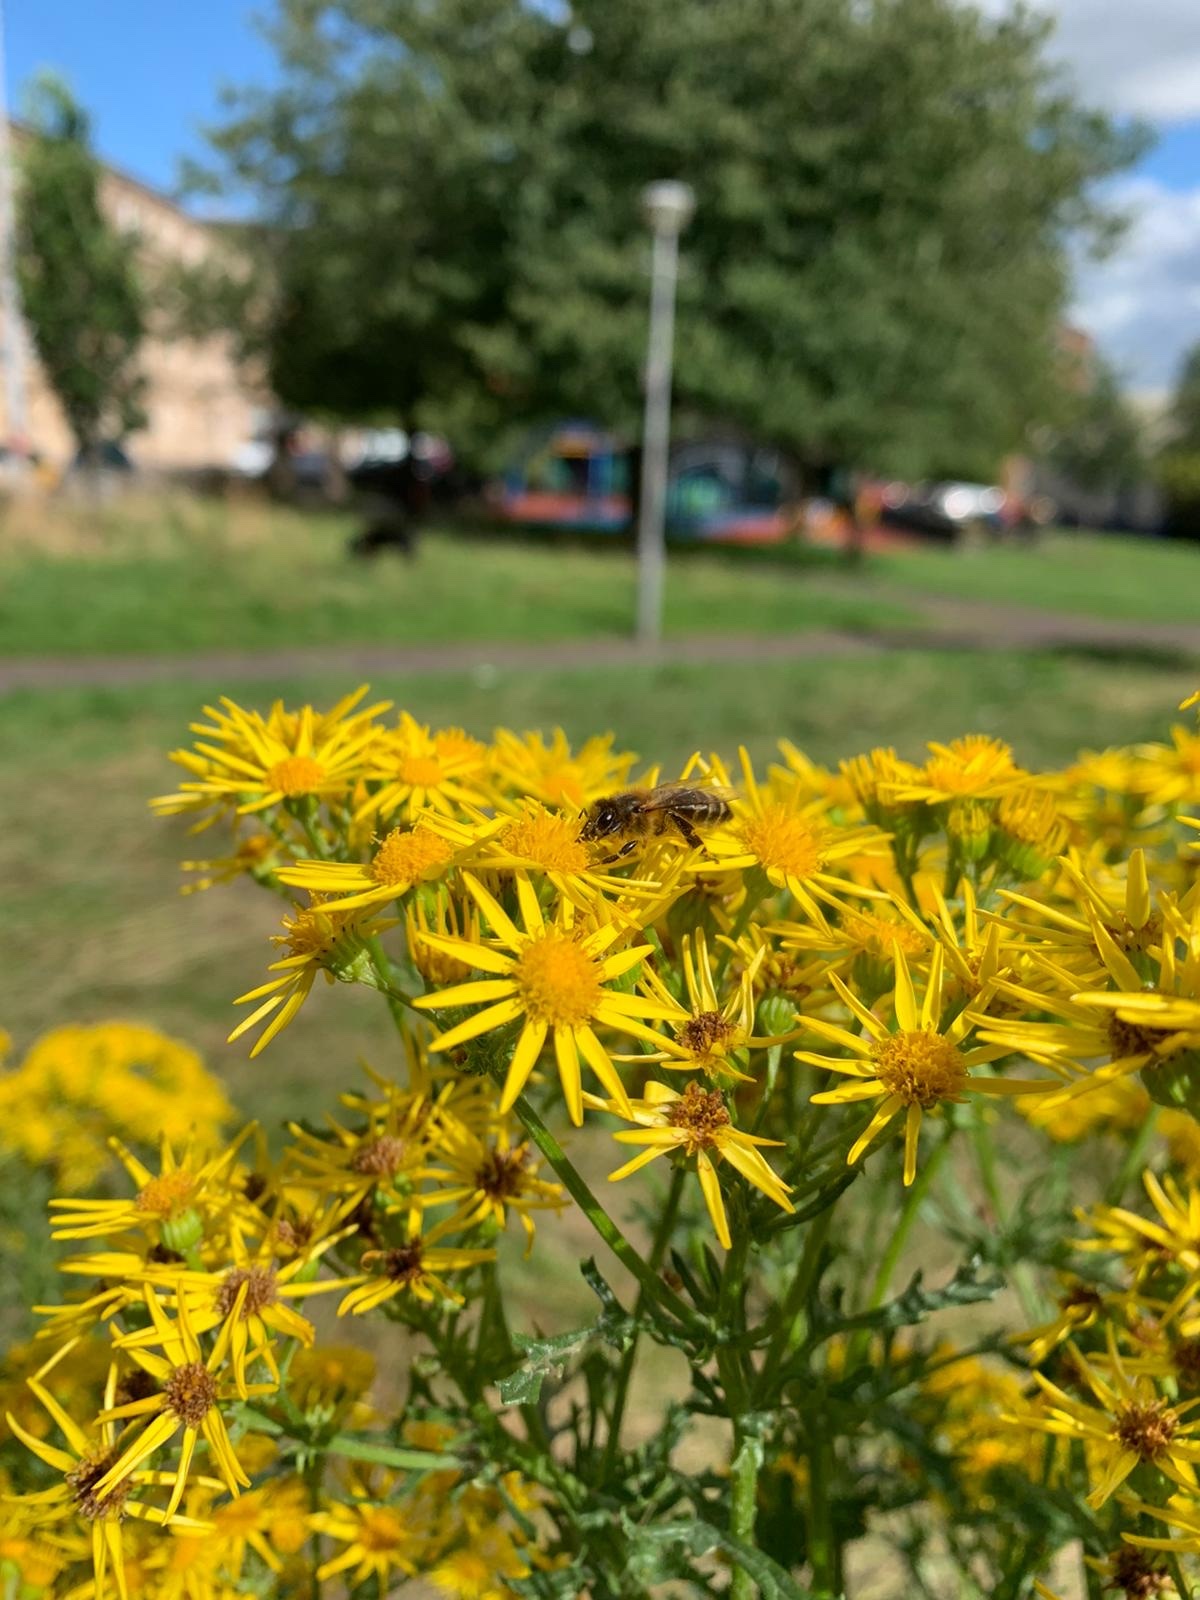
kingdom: Animalia
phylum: Arthropoda
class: Insecta
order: Hymenoptera
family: Apidae
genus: Apis
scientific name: Apis mellifera
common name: Honey bee
